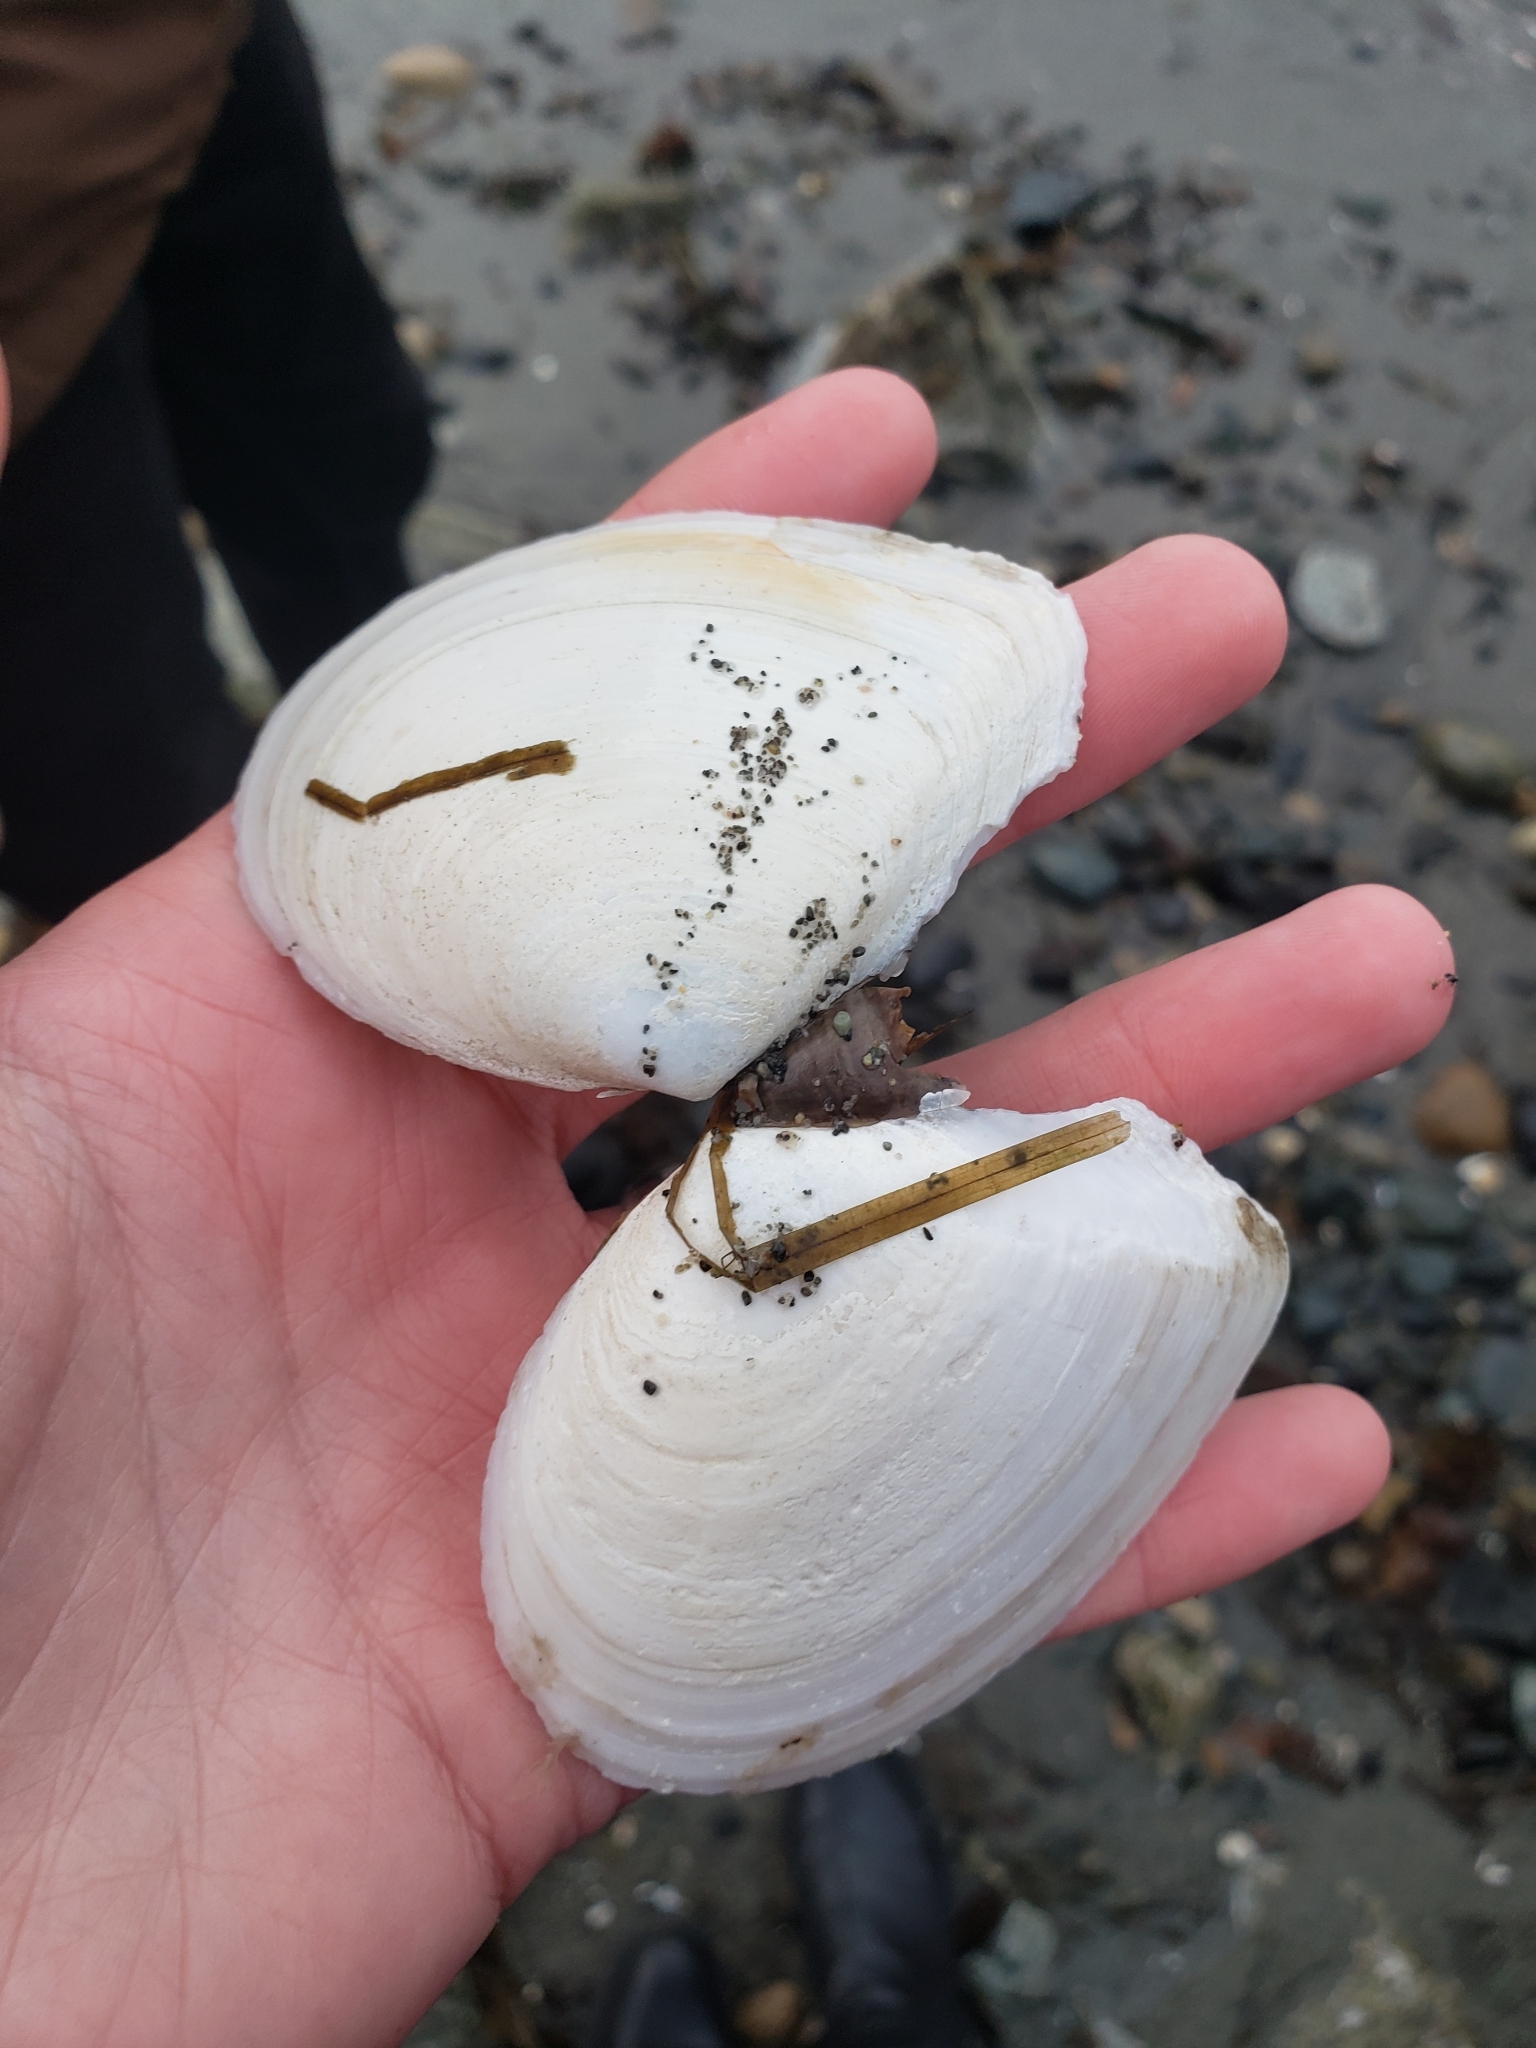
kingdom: Animalia
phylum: Mollusca
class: Bivalvia
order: Cardiida
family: Tellinidae
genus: Rexithaerus
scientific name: Rexithaerus secta
